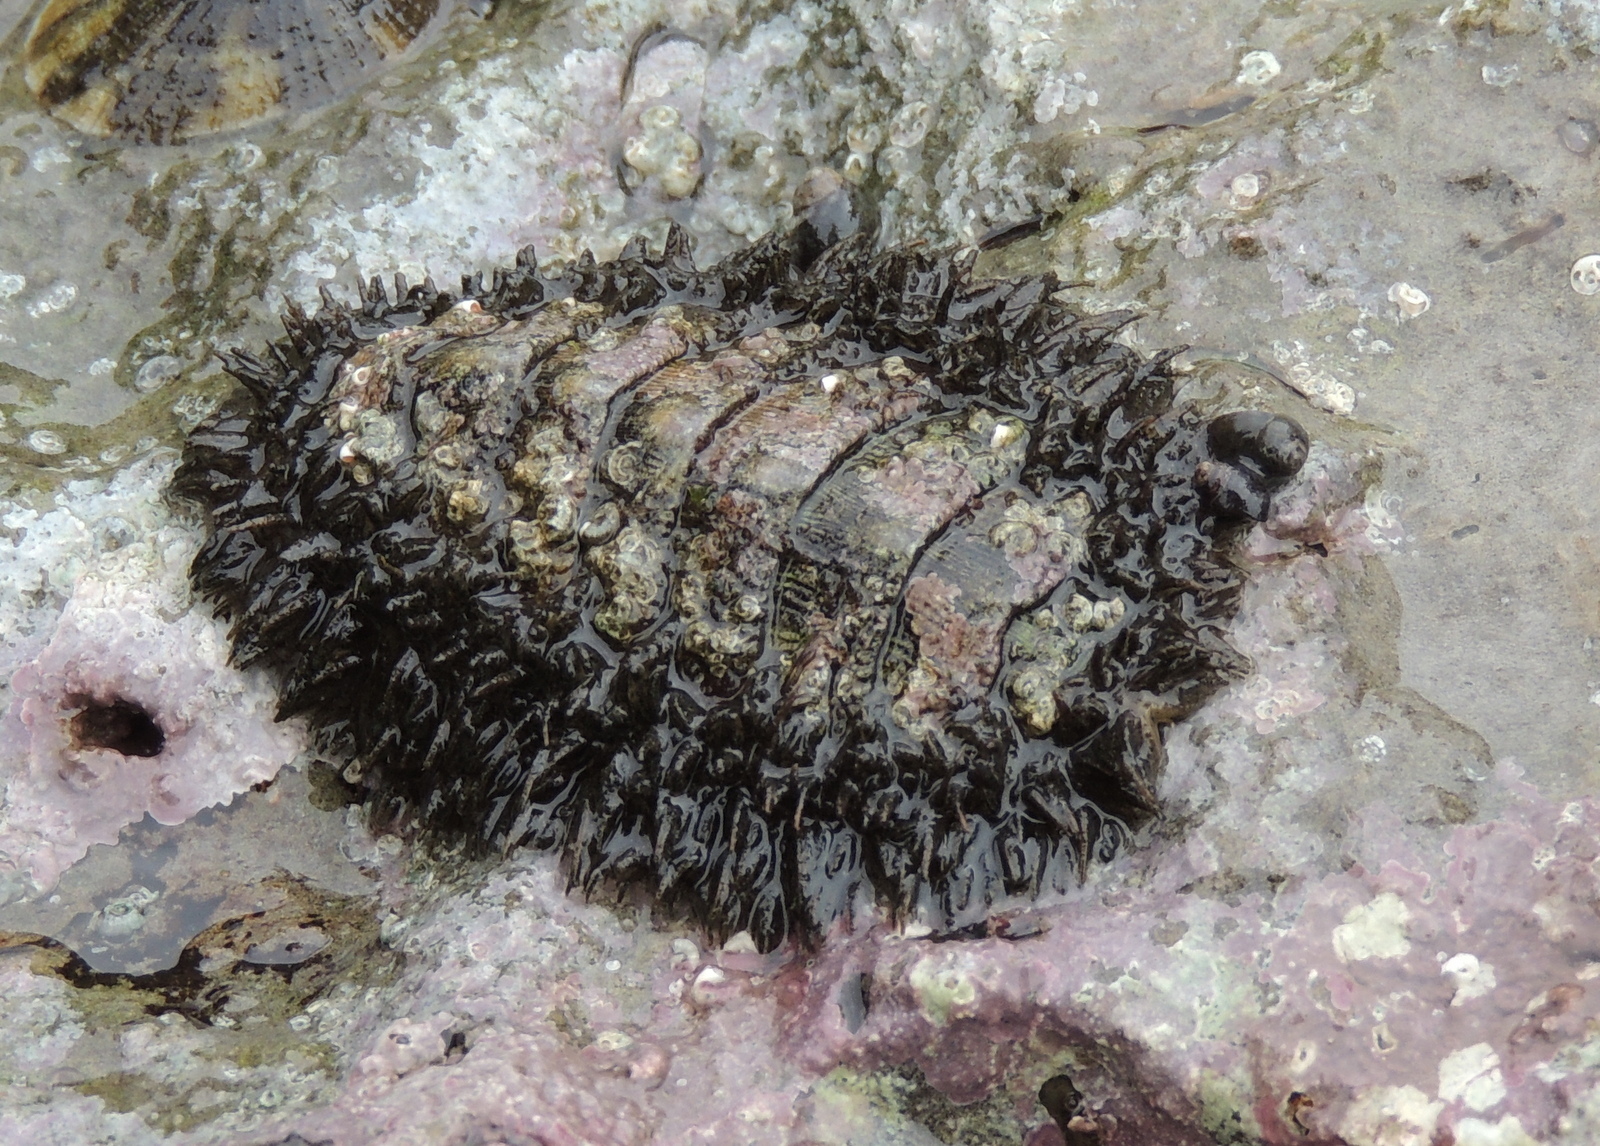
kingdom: Animalia
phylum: Mollusca
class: Polyplacophora
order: Chitonida
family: Mopaliidae
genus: Mopalia
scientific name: Mopalia muscosa
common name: Mossy chiton
